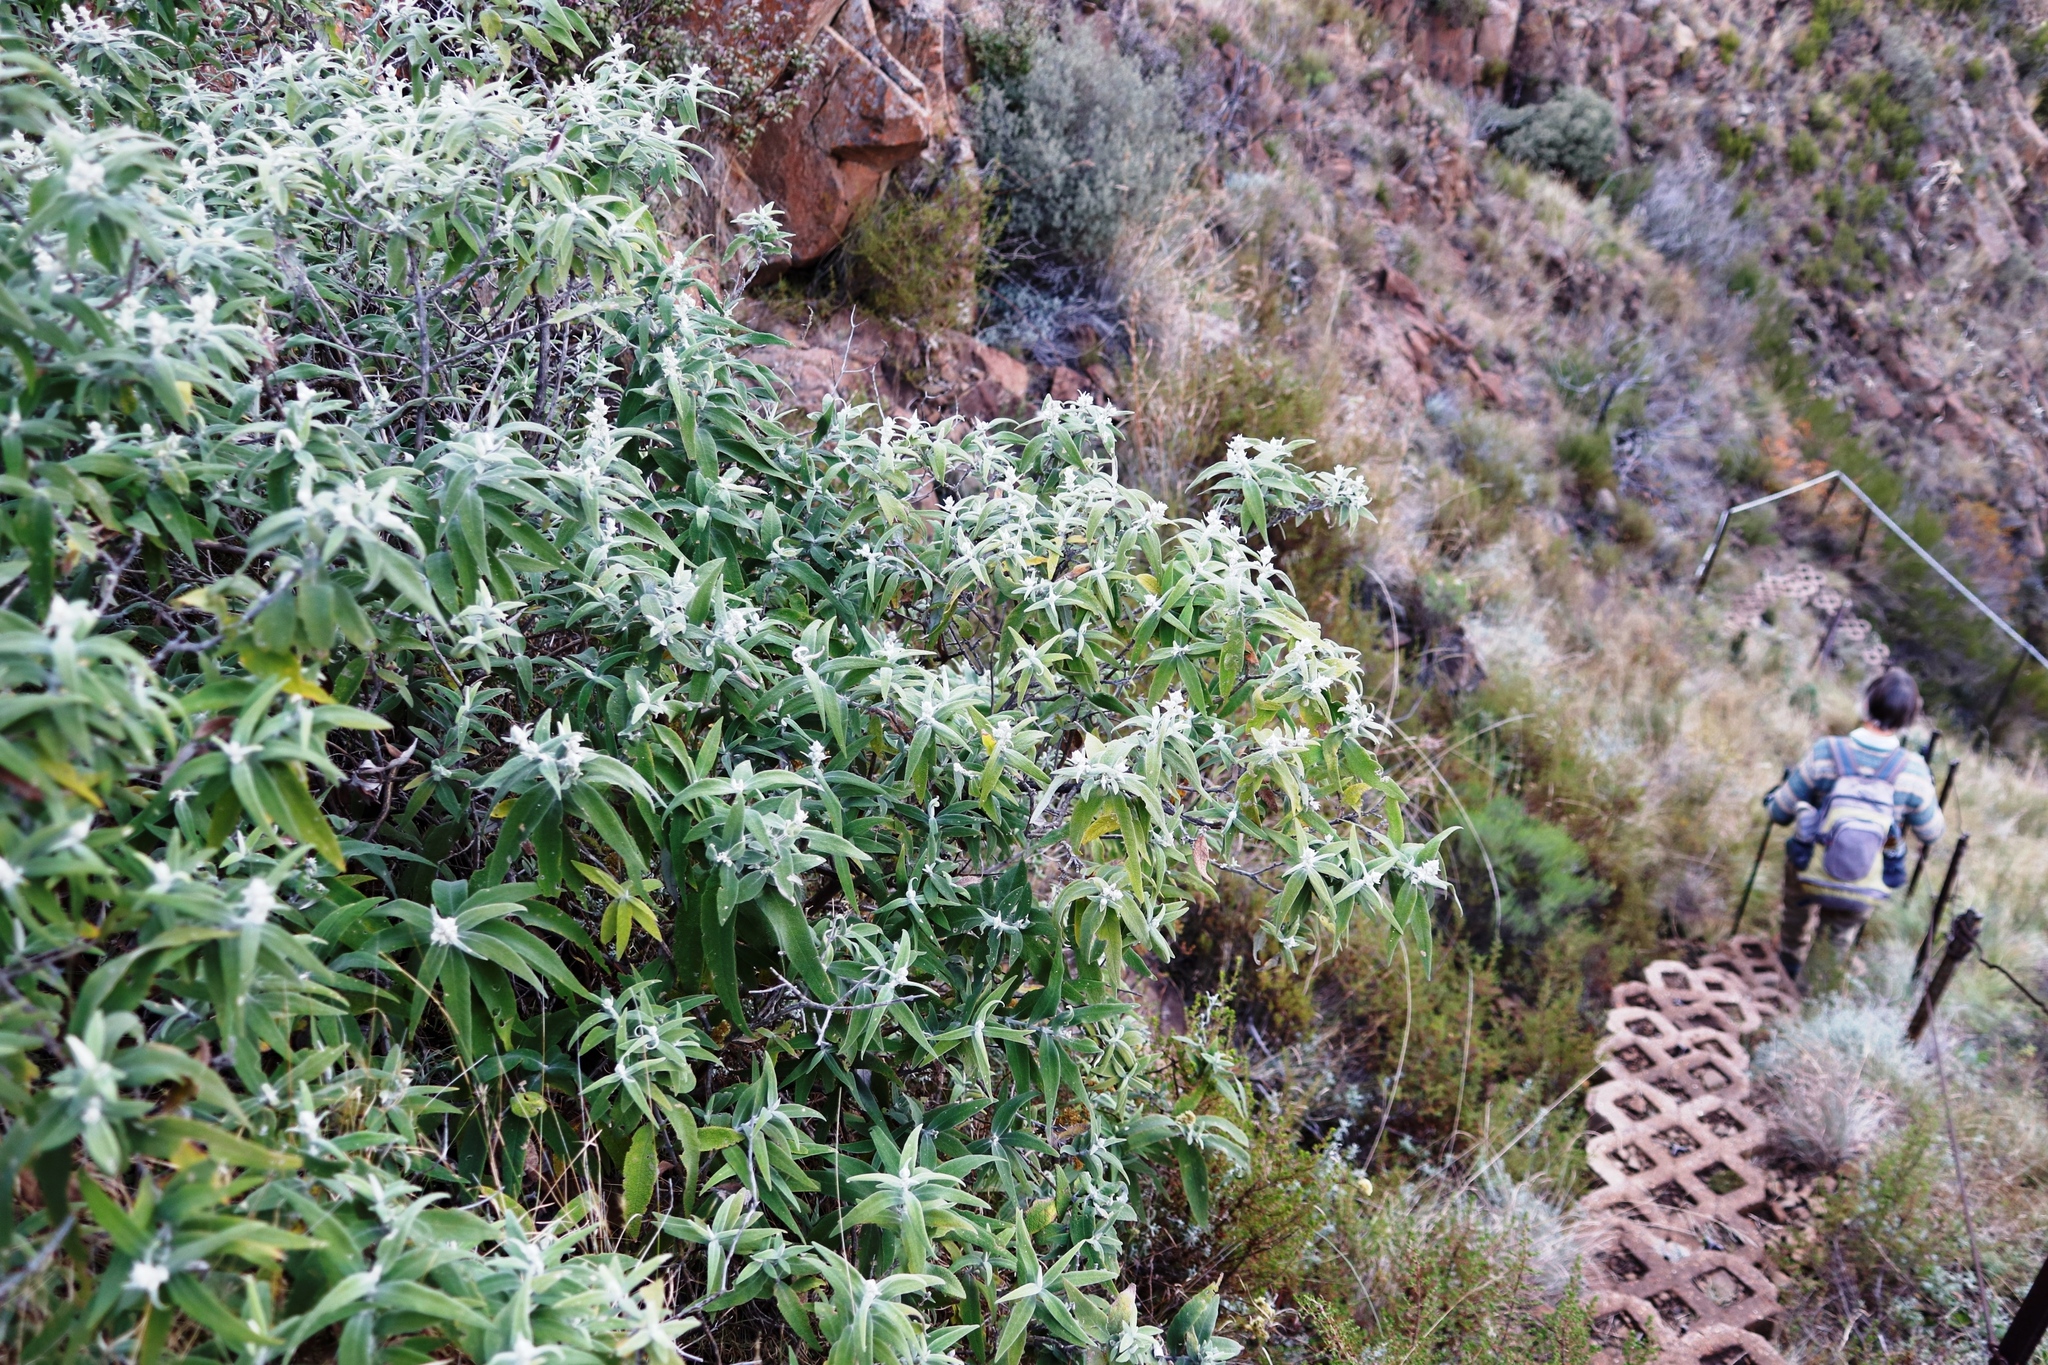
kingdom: Plantae
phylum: Tracheophyta
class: Magnoliopsida
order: Lamiales
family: Scrophulariaceae
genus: Buddleja
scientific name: Buddleja salviifolia
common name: Sagewood
